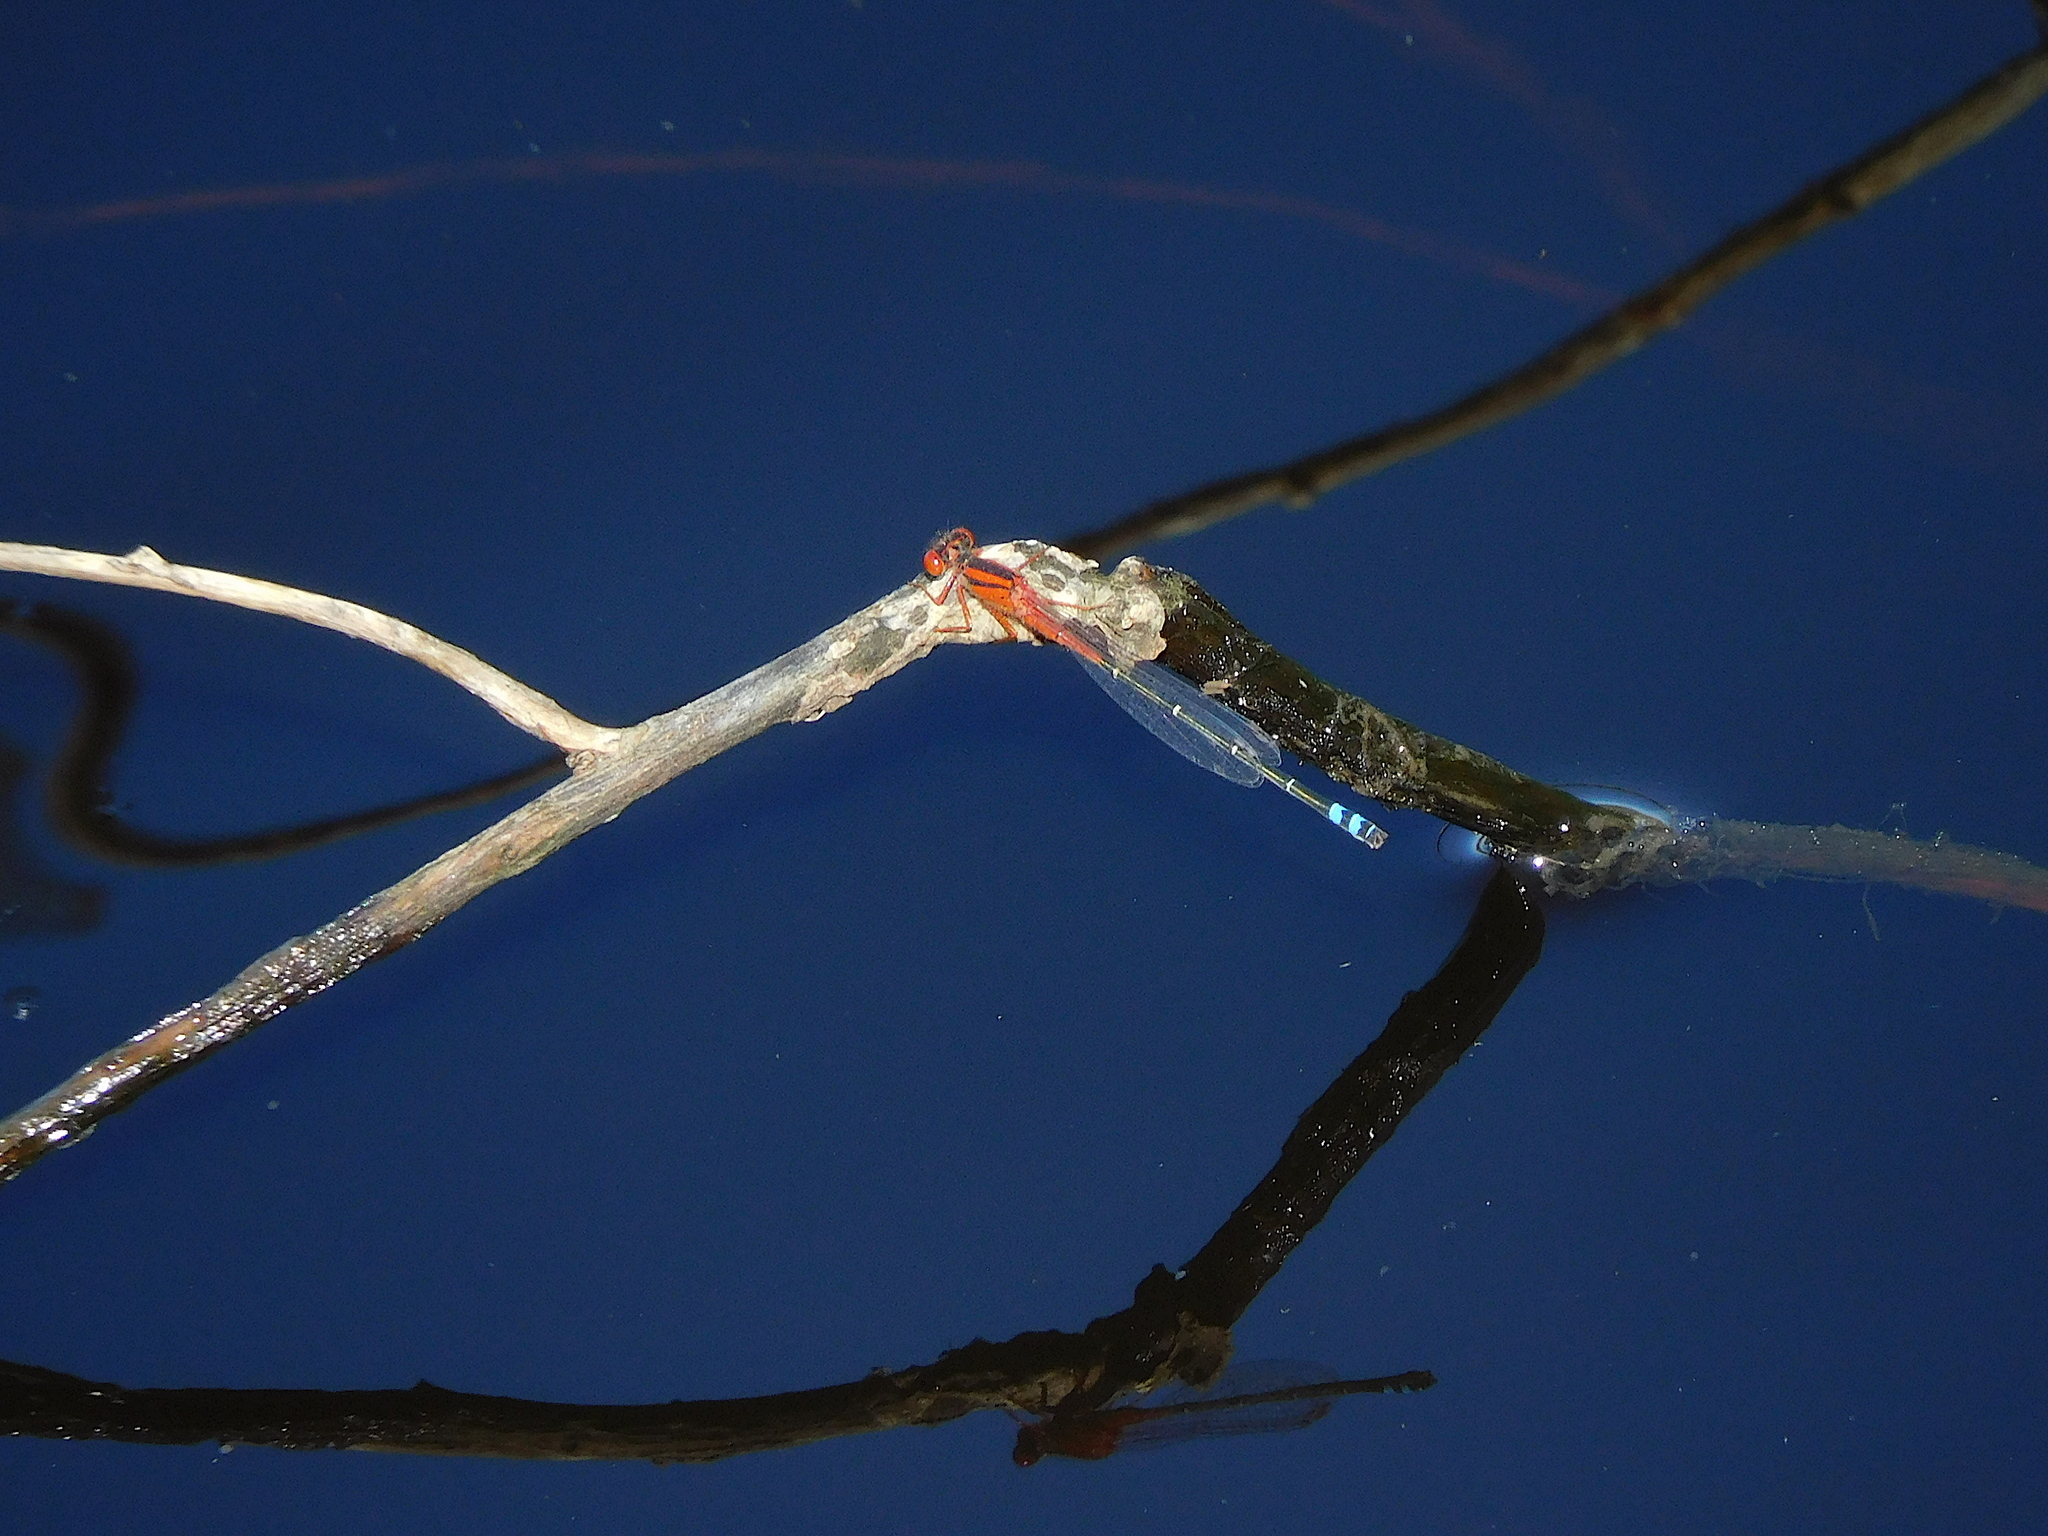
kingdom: Animalia
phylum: Arthropoda
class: Insecta
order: Odonata
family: Coenagrionidae
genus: Xanthagrion
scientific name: Xanthagrion erythroneurum
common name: Red and blue damsel
